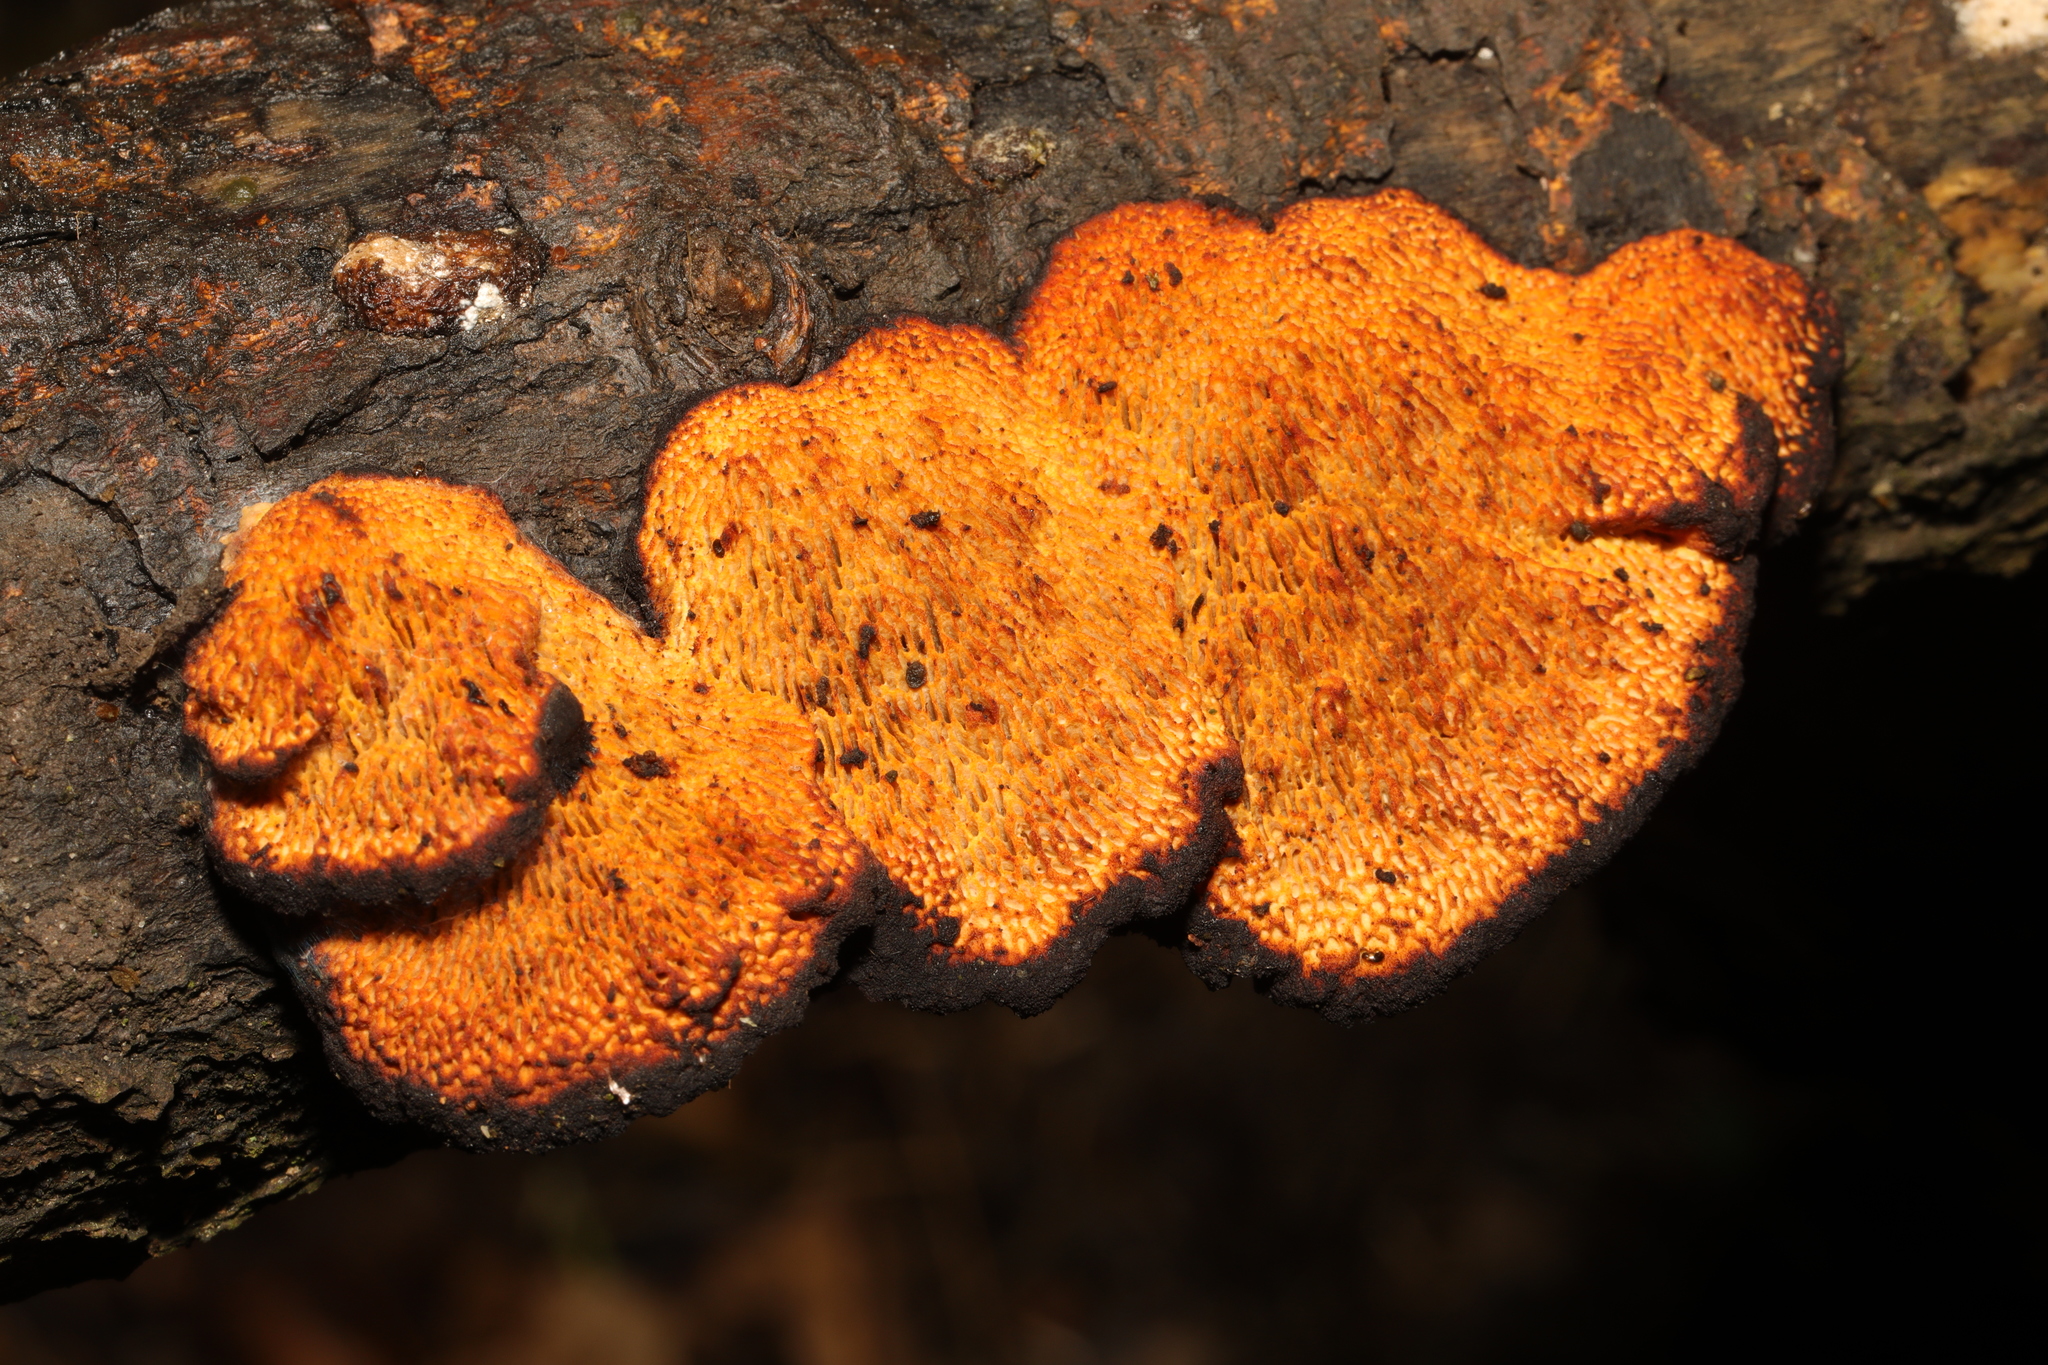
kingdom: Fungi
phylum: Basidiomycota
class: Agaricomycetes
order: Polyporales
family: Polyporaceae
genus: Daedaleopsis
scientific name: Daedaleopsis confragosa
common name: Blushing bracket
